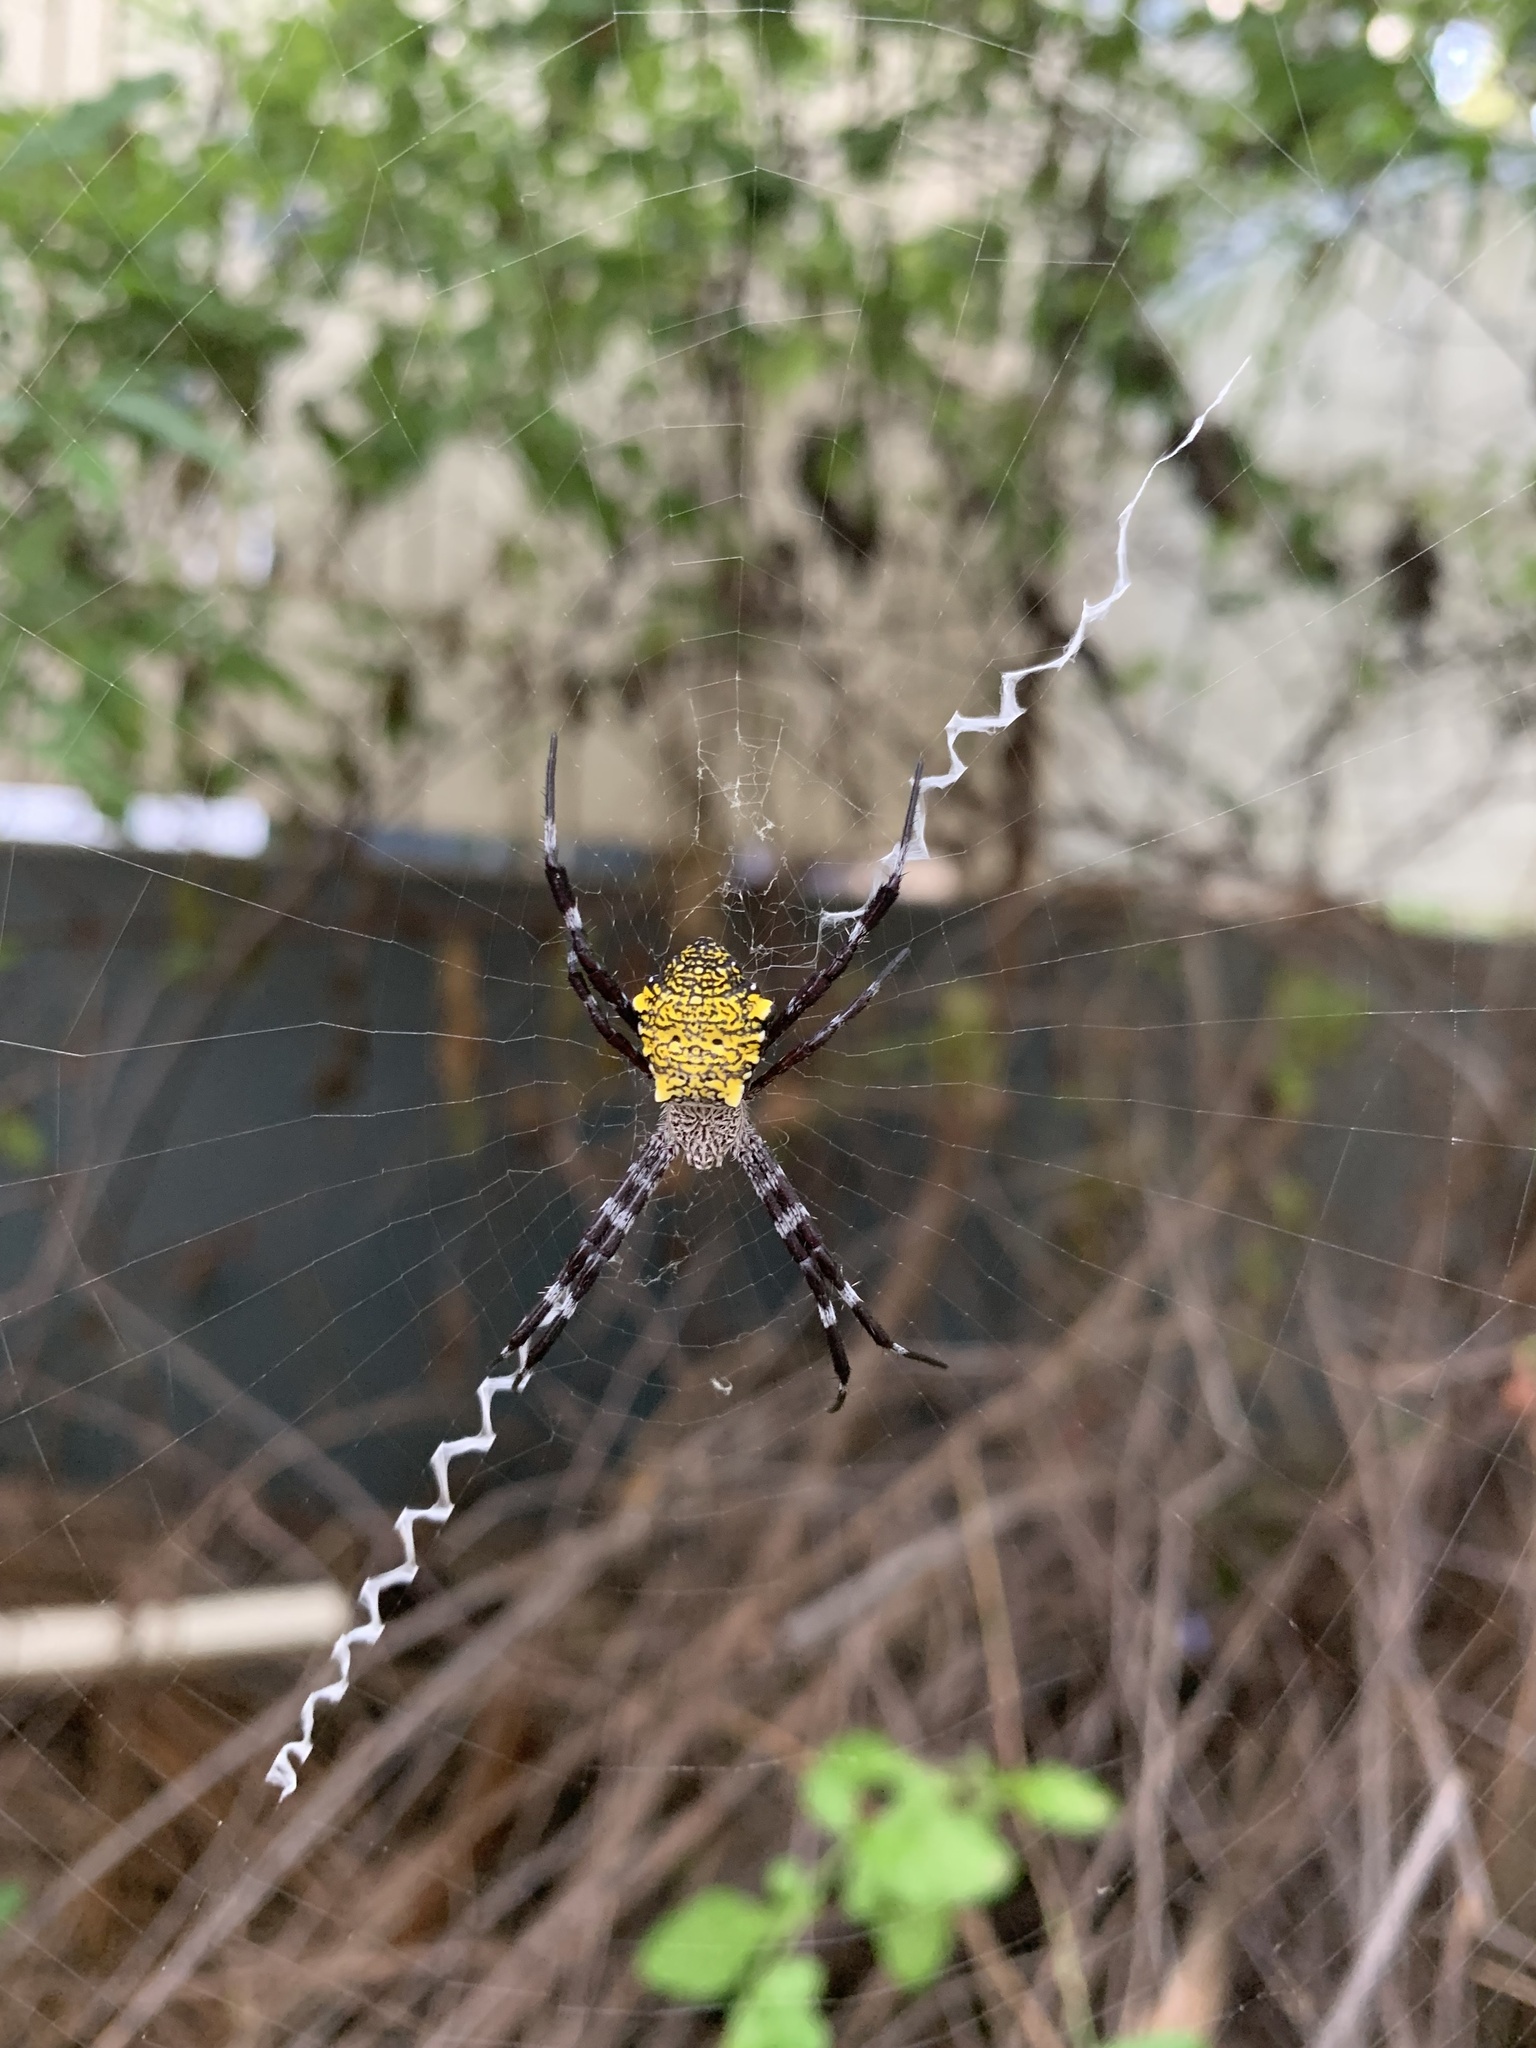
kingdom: Animalia
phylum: Arthropoda
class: Arachnida
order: Araneae
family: Araneidae
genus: Argiope
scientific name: Argiope appensa
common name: Garden spider
